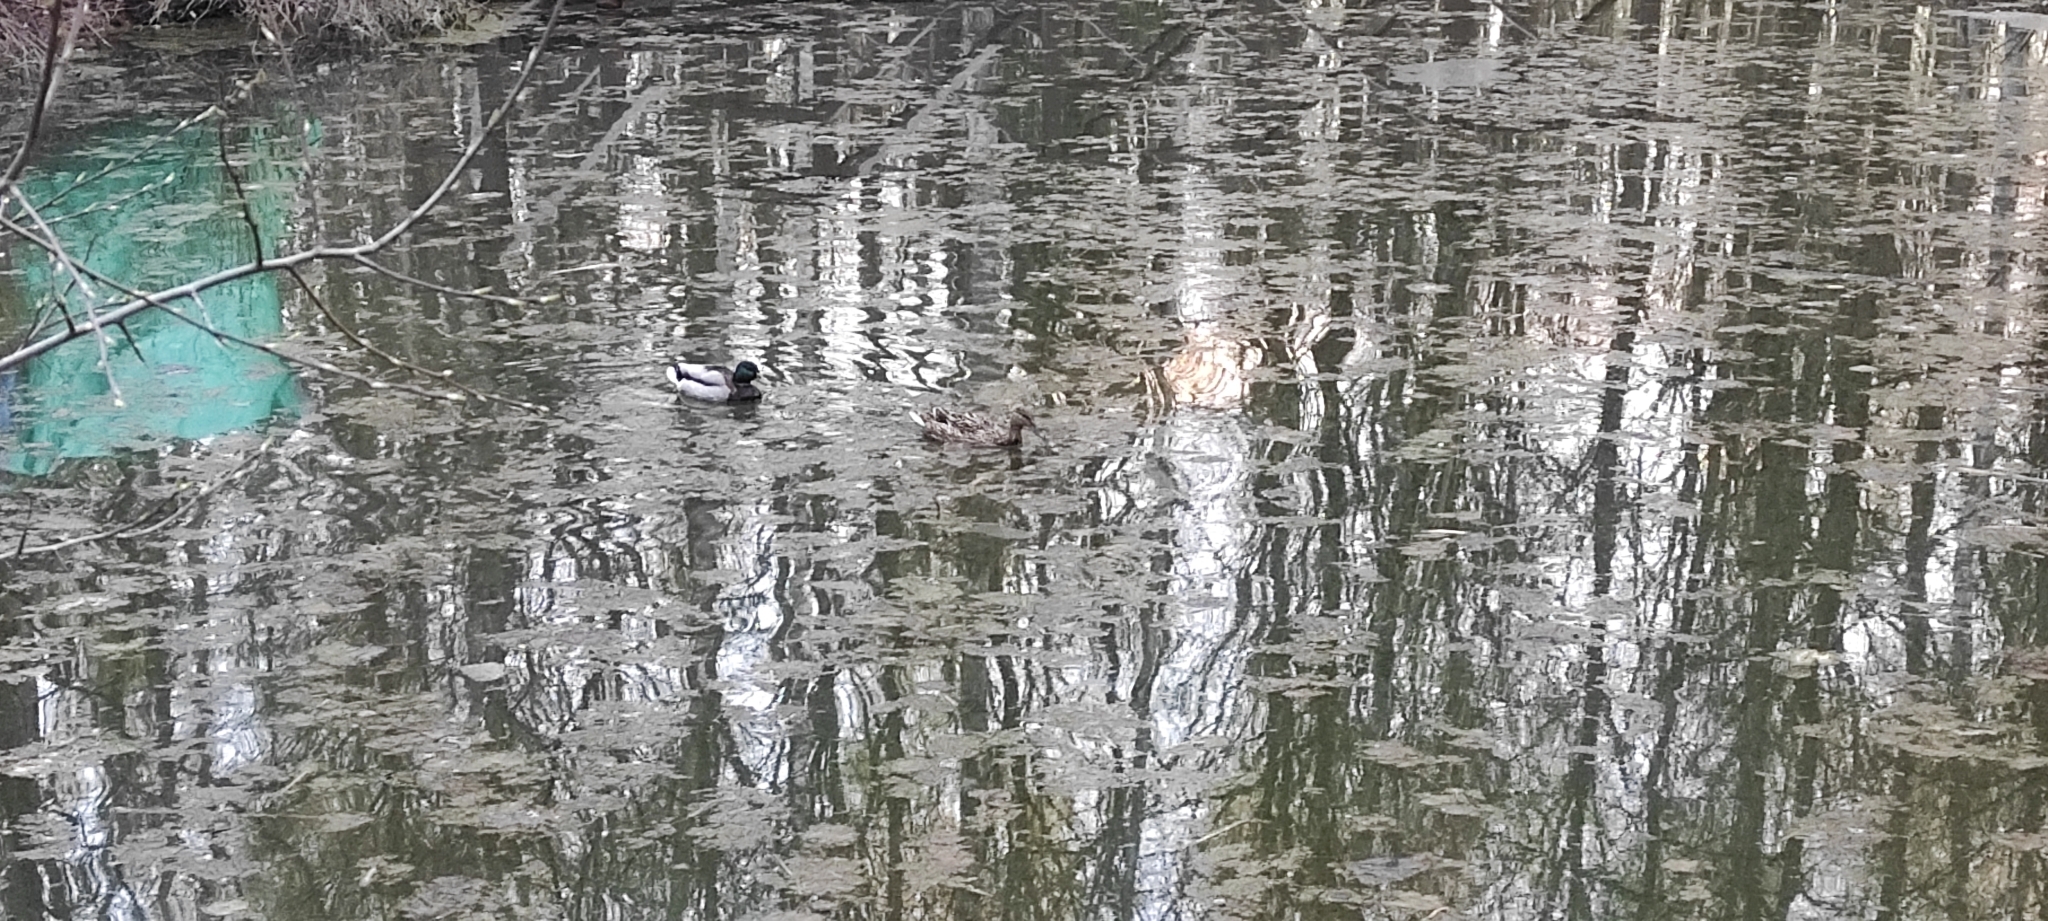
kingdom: Animalia
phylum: Chordata
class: Aves
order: Anseriformes
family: Anatidae
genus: Anas
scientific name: Anas platyrhynchos
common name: Mallard
